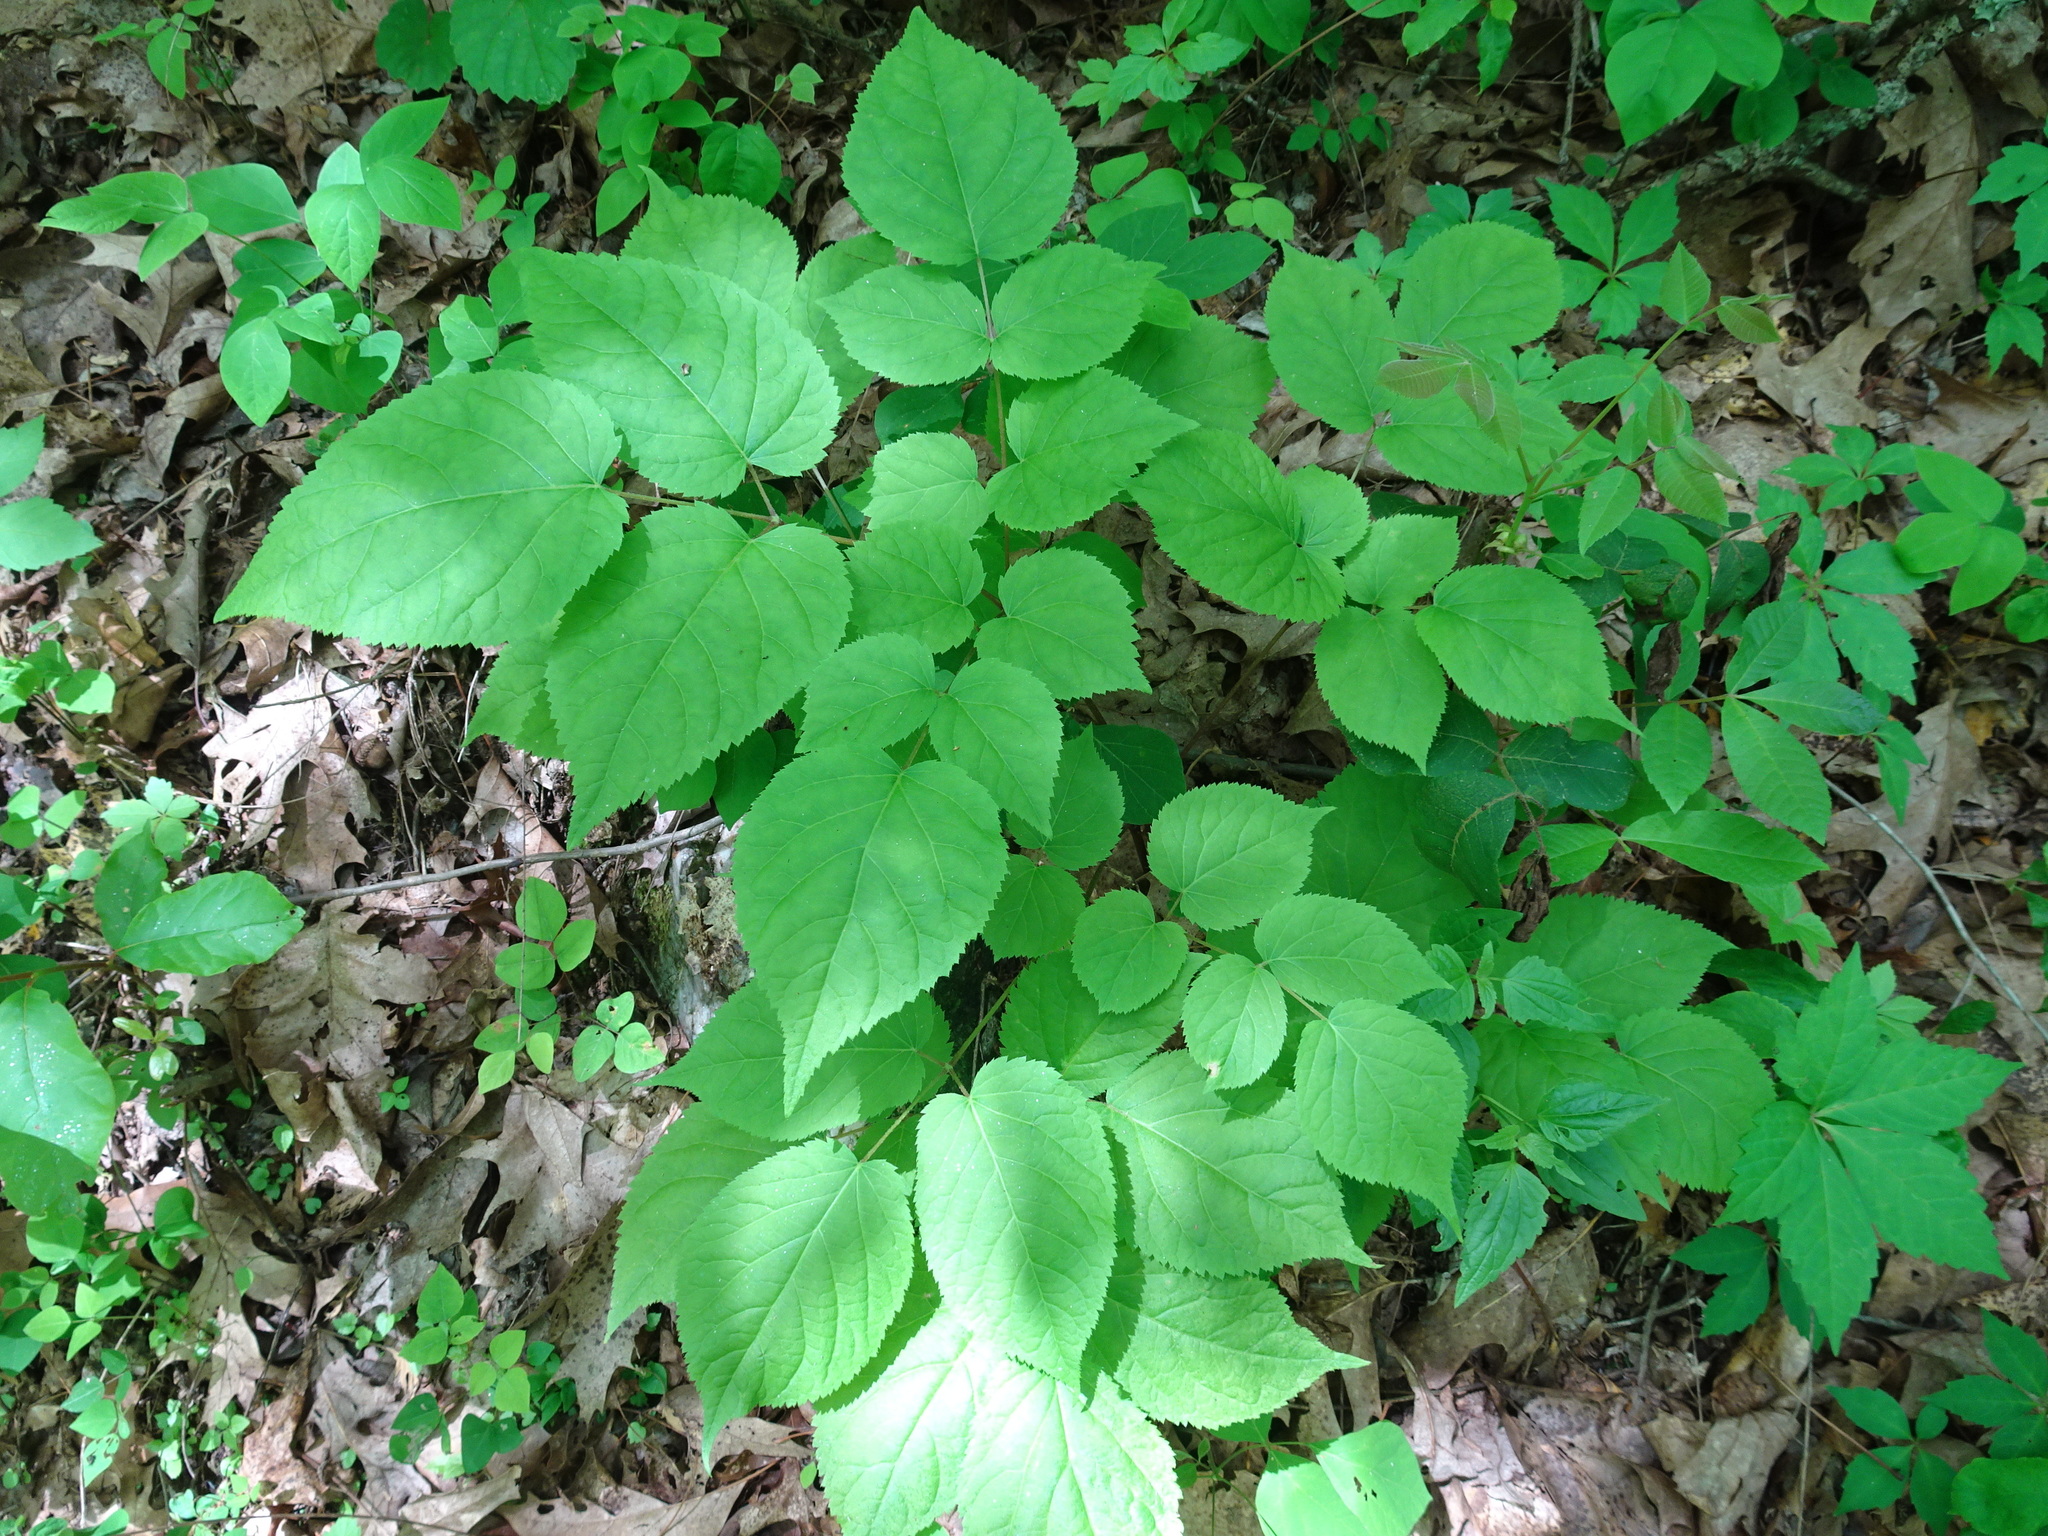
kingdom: Plantae
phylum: Tracheophyta
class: Magnoliopsida
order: Apiales
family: Araliaceae
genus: Aralia
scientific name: Aralia racemosa
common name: American-spikenard
